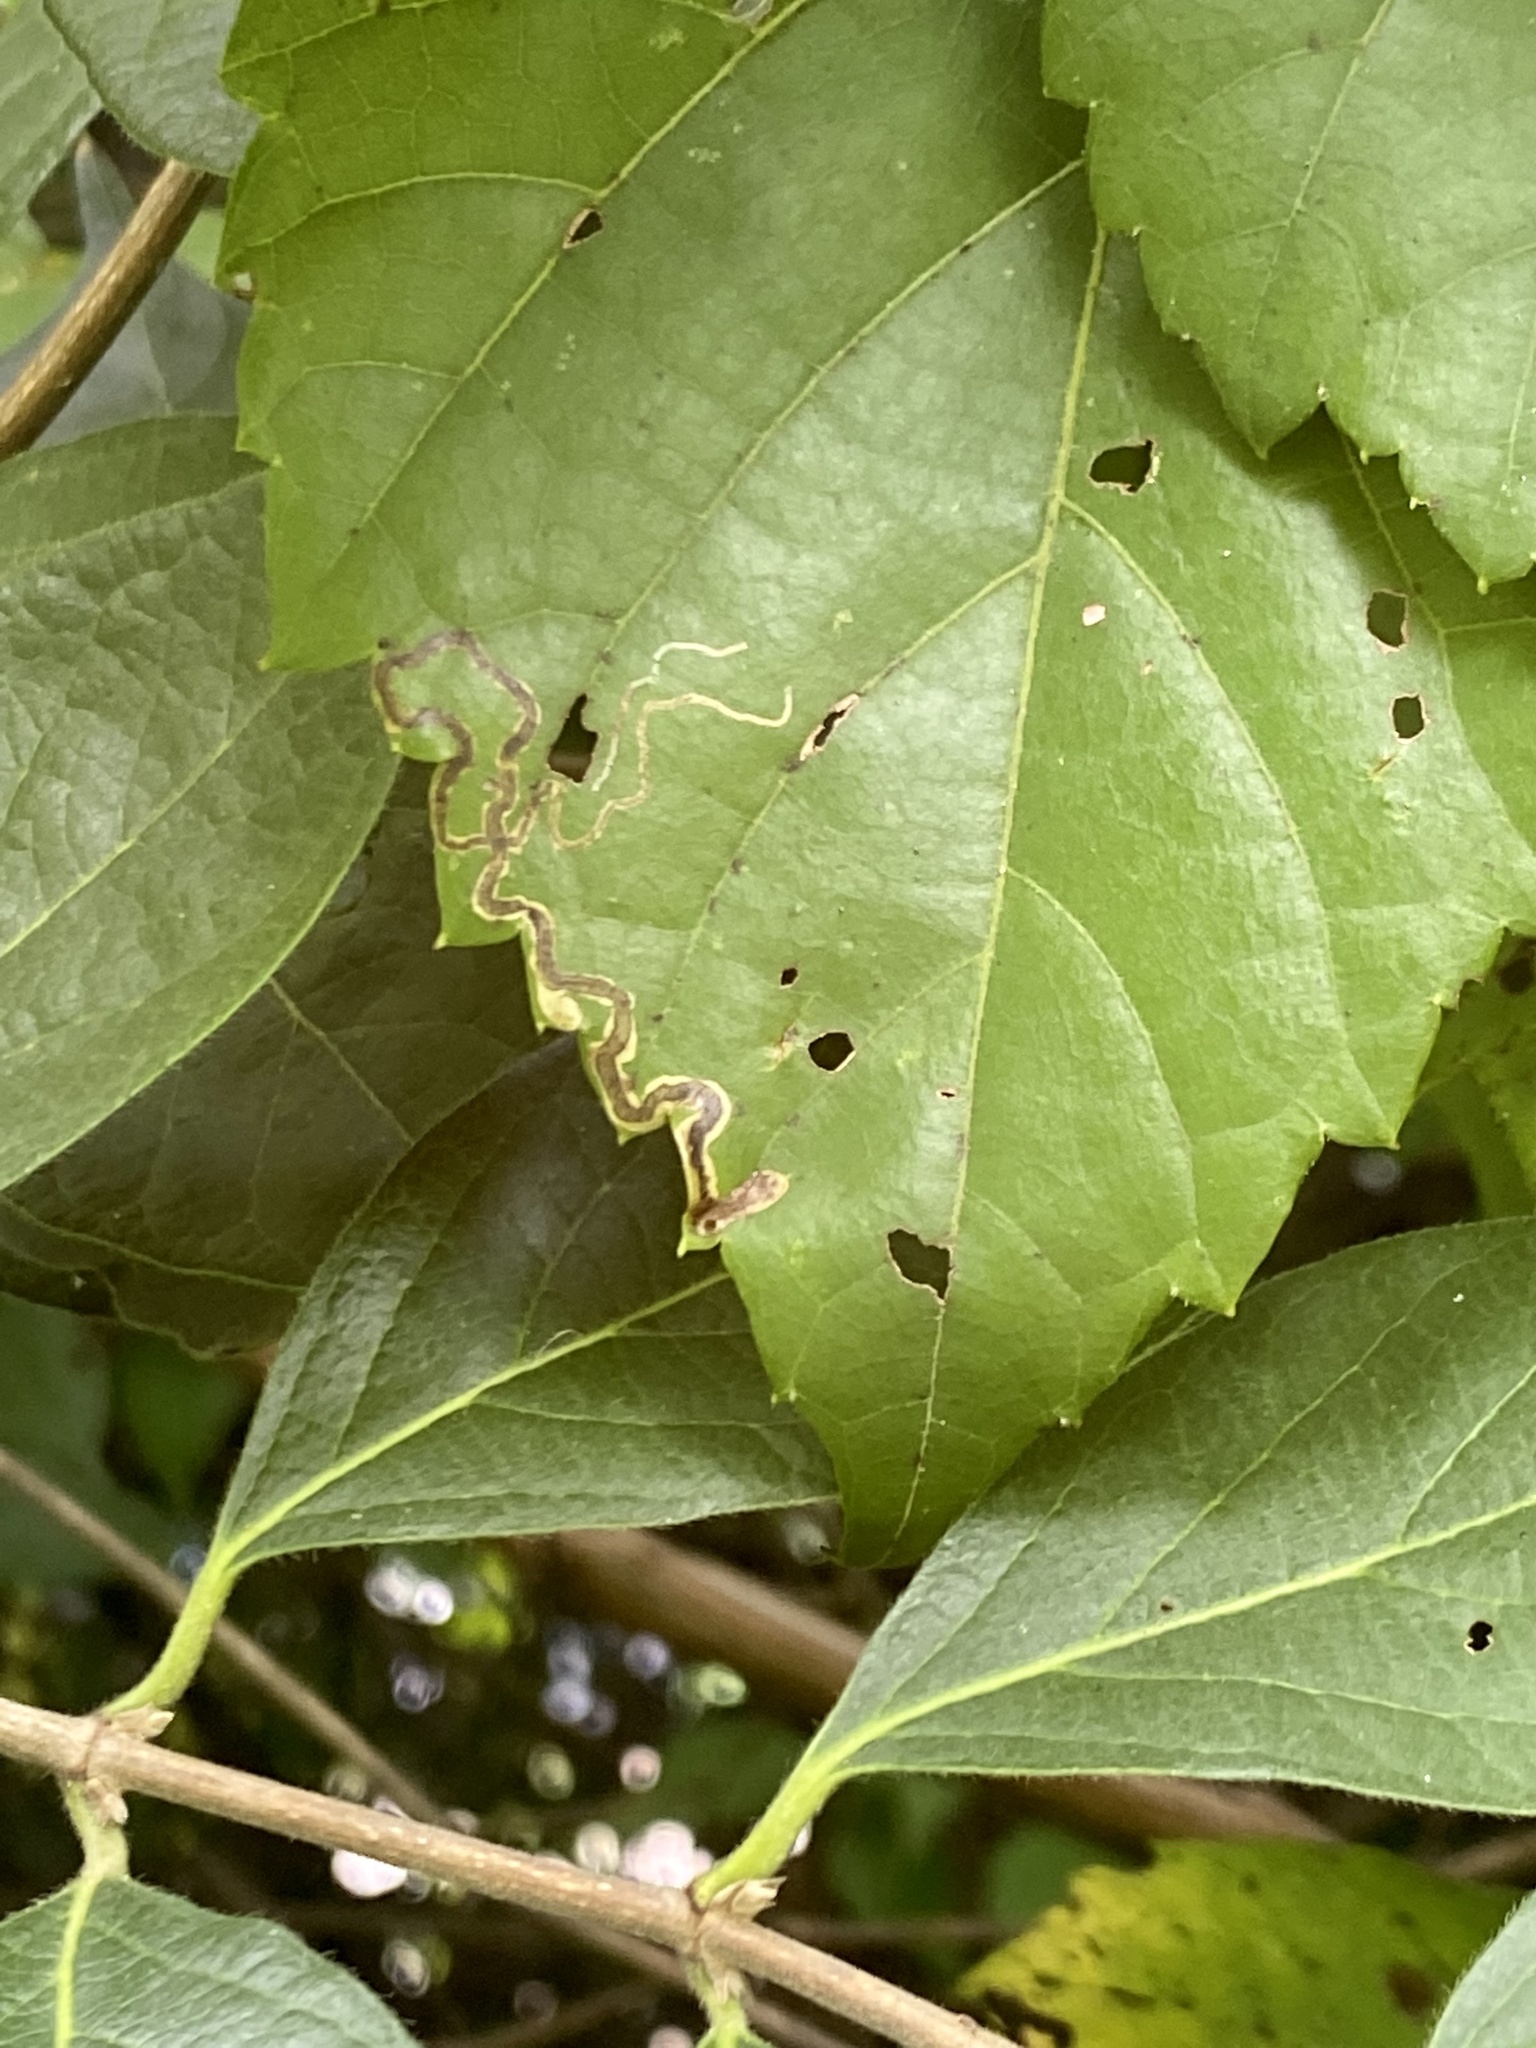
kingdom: Animalia
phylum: Arthropoda
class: Insecta
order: Lepidoptera
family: Gracillariidae
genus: Phyllocnistis
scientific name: Phyllocnistis vitifoliella
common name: Grape leaf-miner moth
